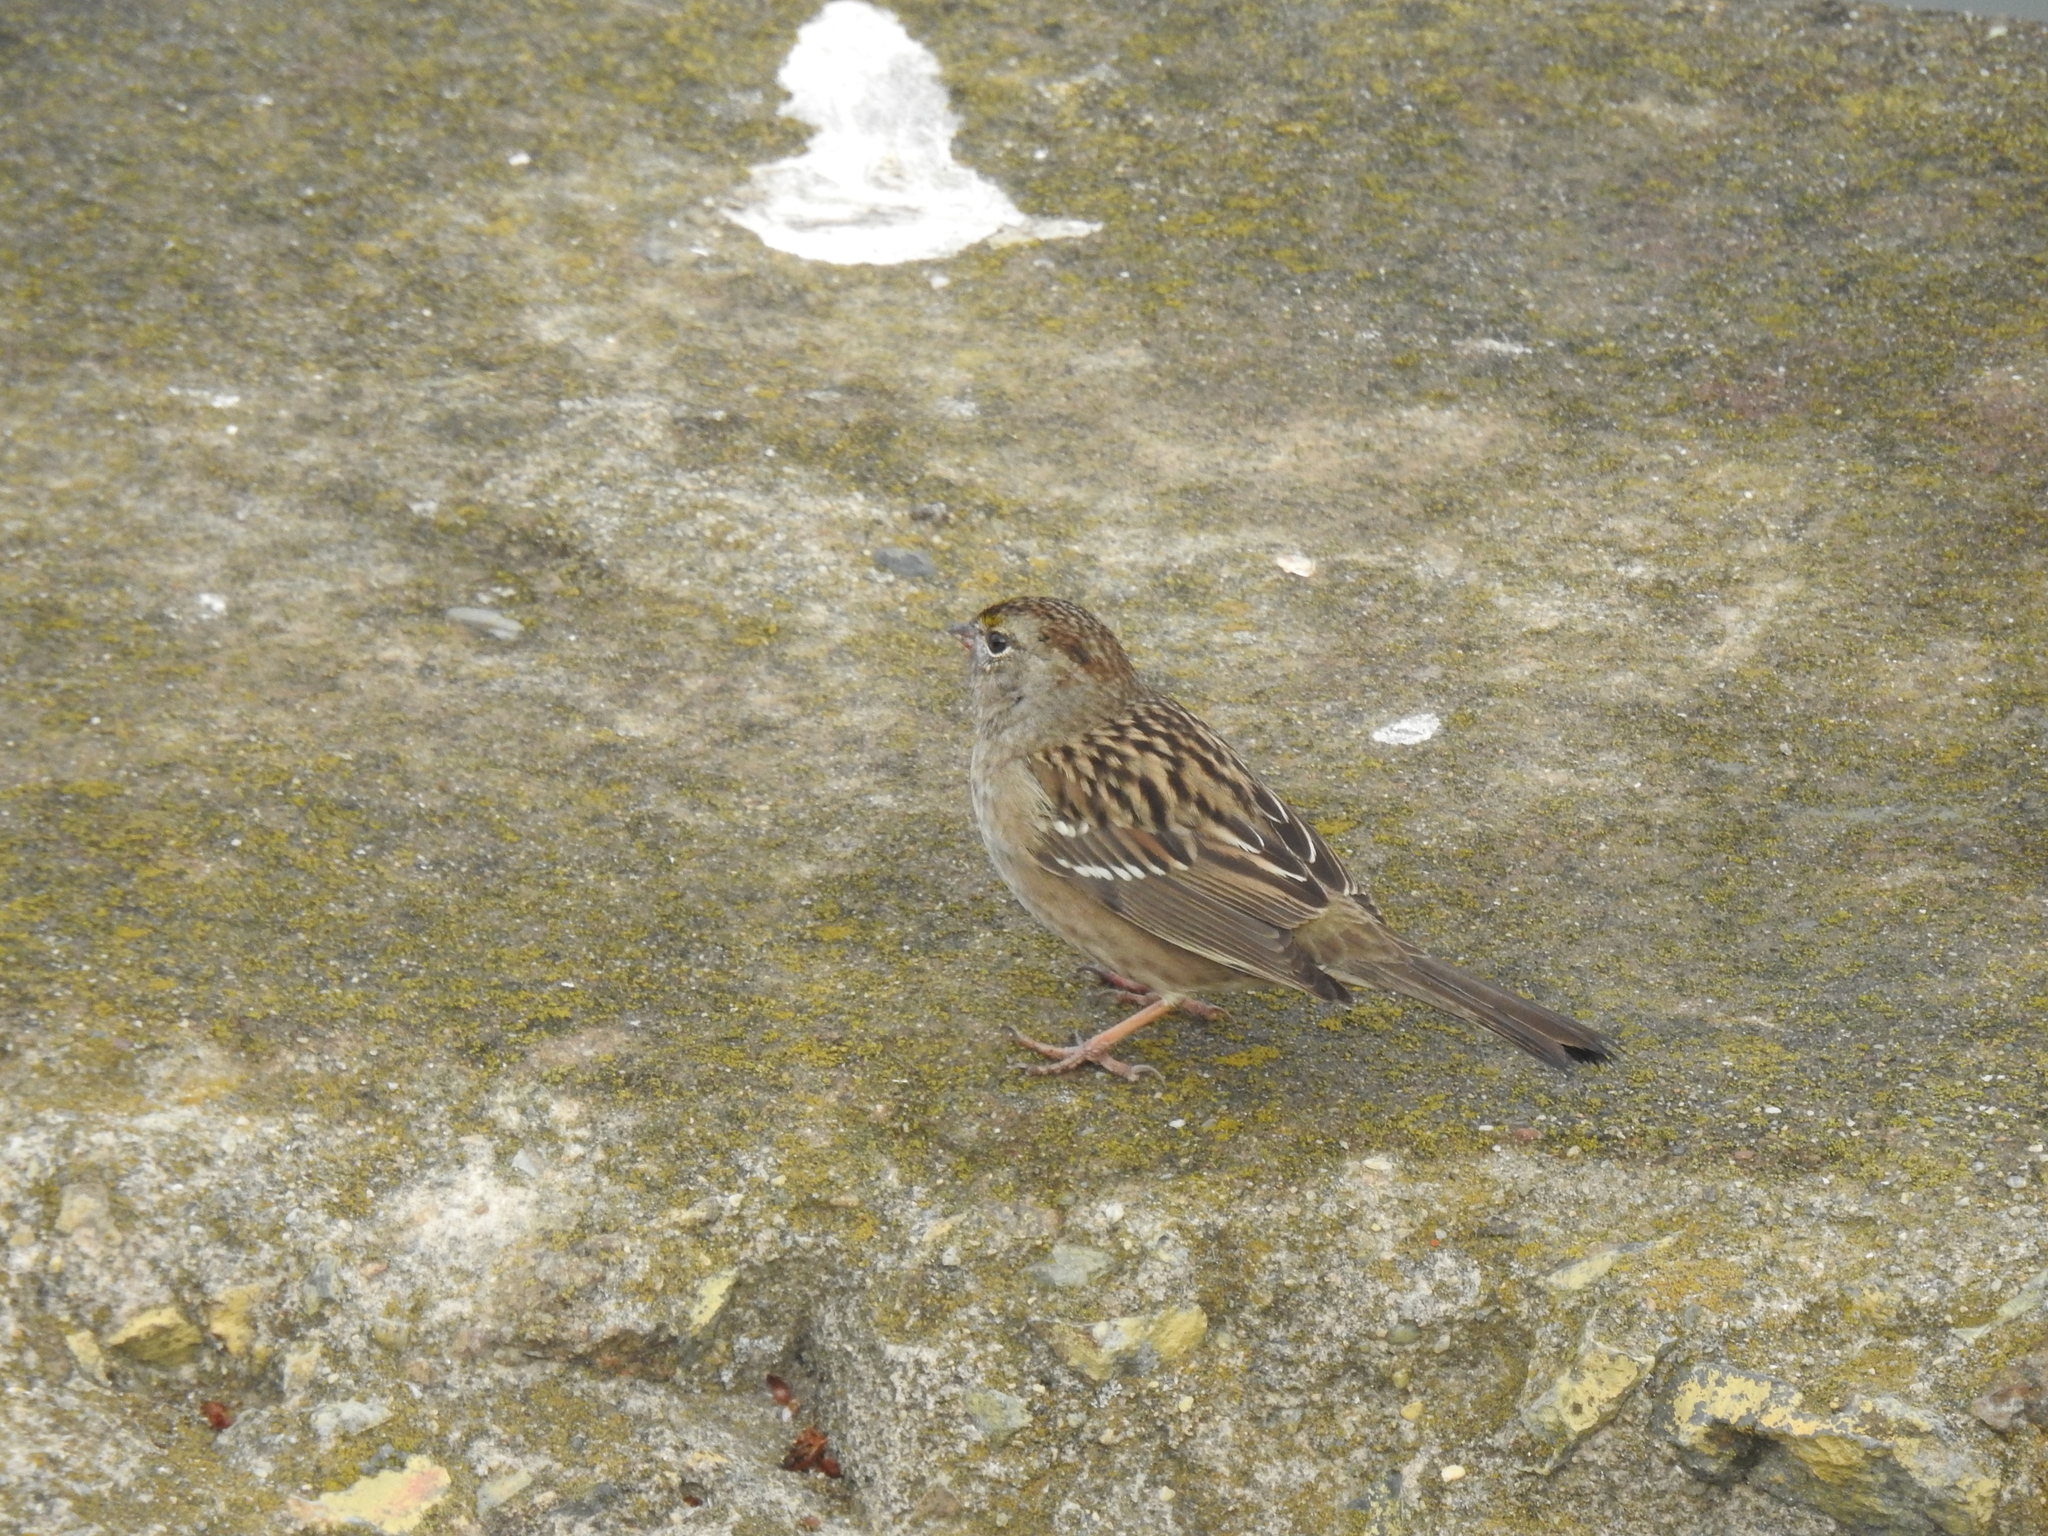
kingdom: Animalia
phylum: Chordata
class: Aves
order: Passeriformes
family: Passerellidae
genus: Zonotrichia
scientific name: Zonotrichia atricapilla
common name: Golden-crowned sparrow
